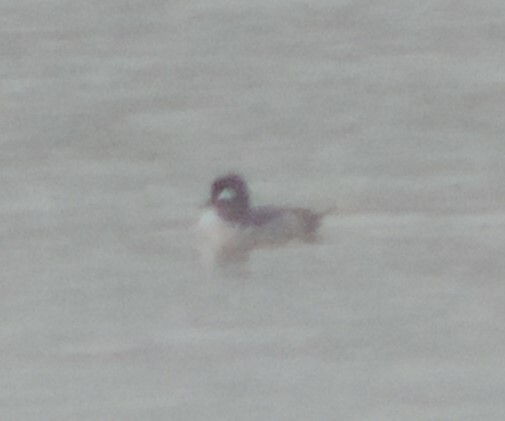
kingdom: Animalia
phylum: Chordata
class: Aves
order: Anseriformes
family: Anatidae
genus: Bucephala
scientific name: Bucephala albeola
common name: Bufflehead
